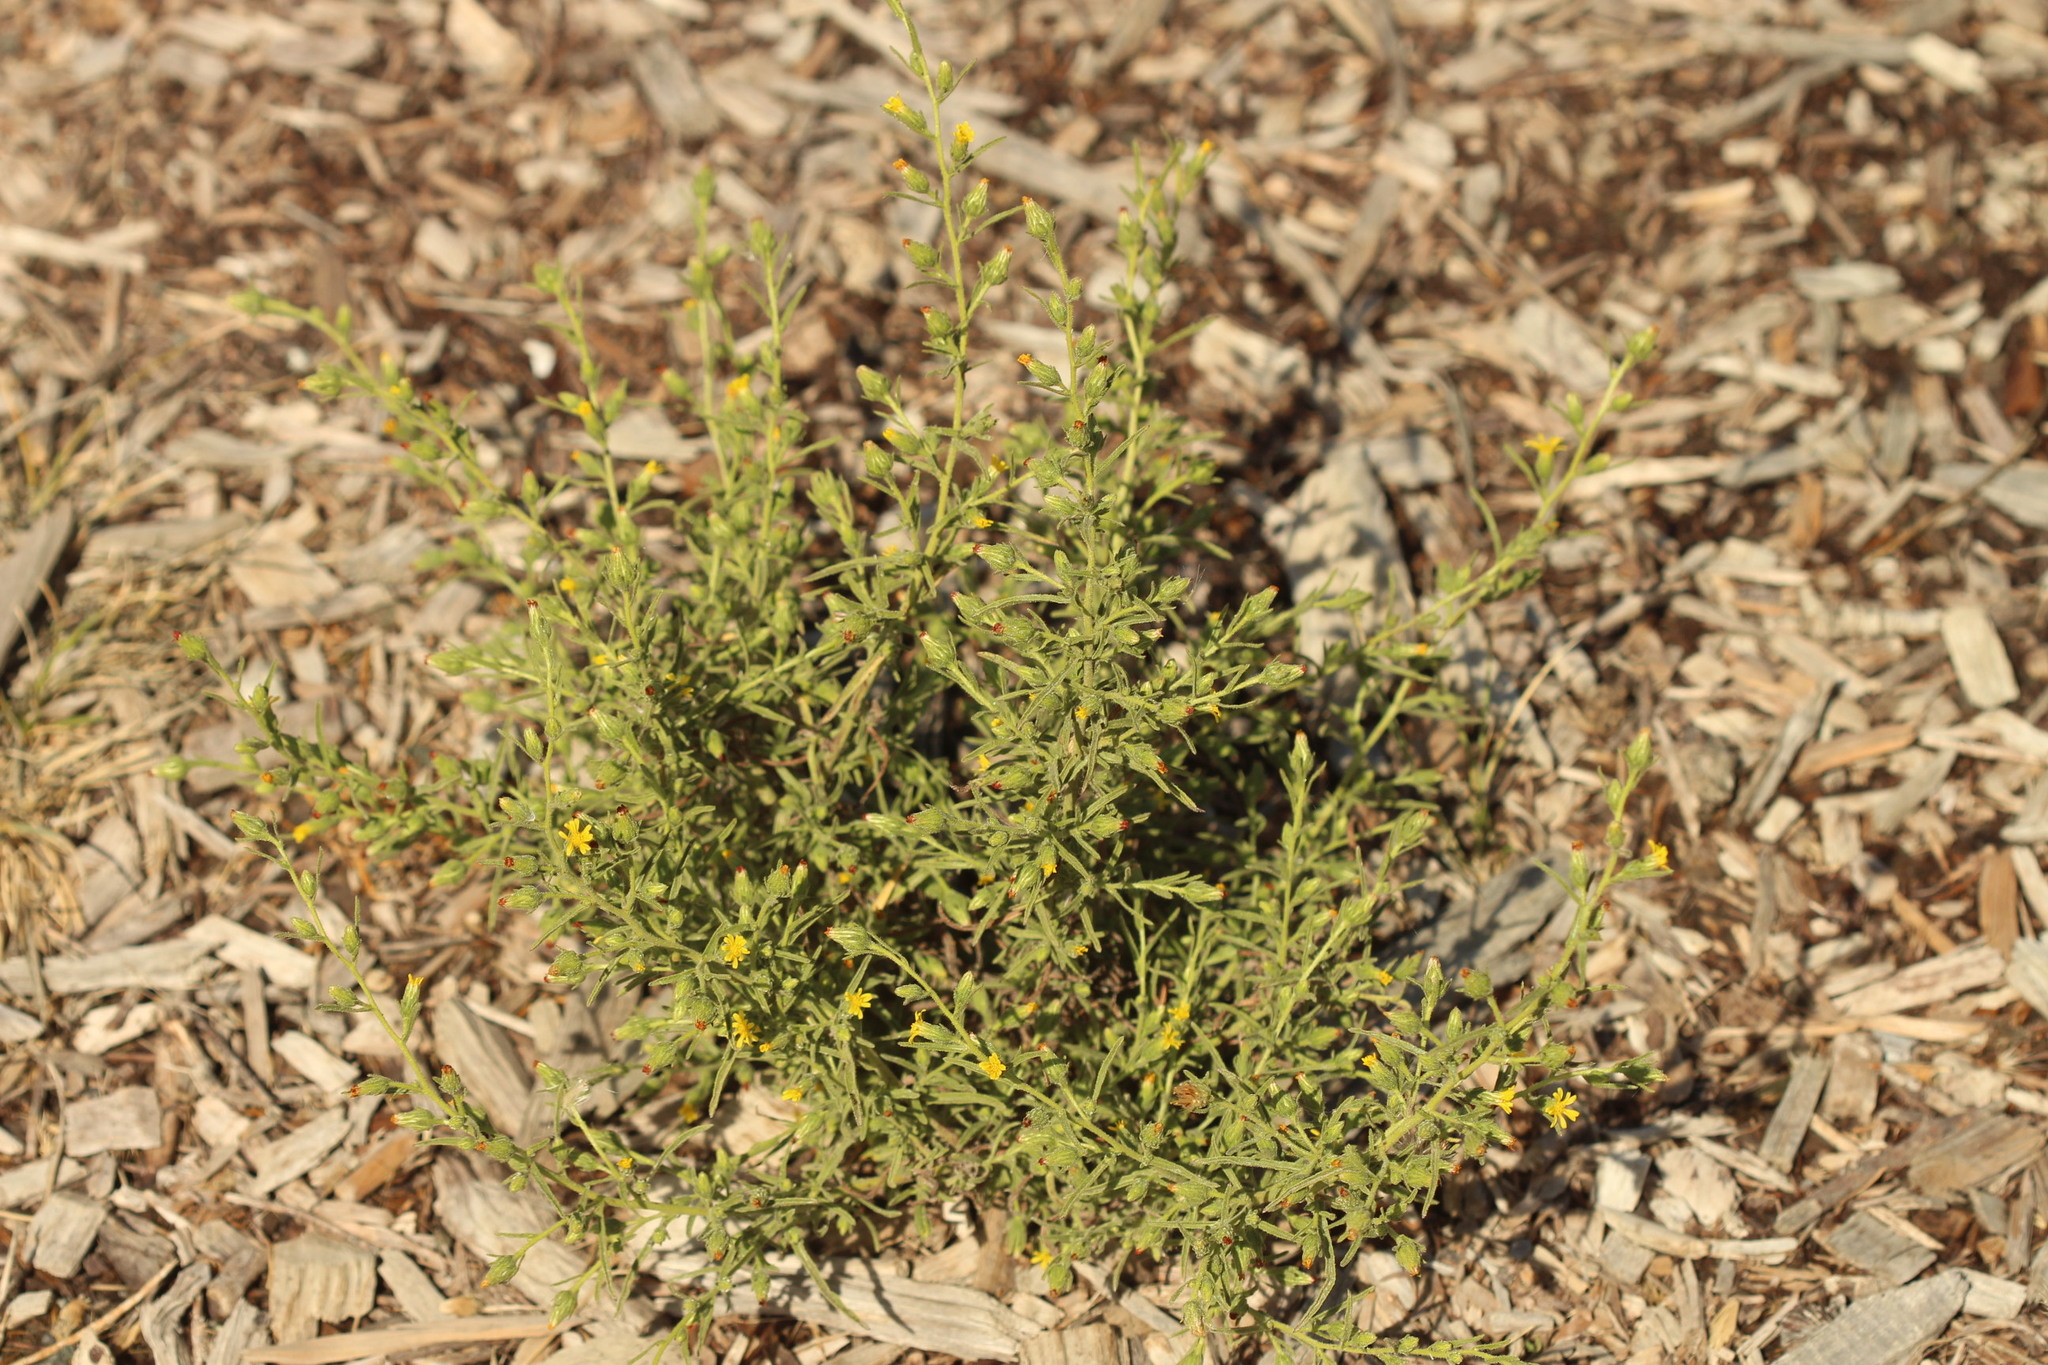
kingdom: Plantae
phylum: Tracheophyta
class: Magnoliopsida
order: Asterales
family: Asteraceae
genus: Dittrichia
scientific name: Dittrichia graveolens
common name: Stinking fleabane
